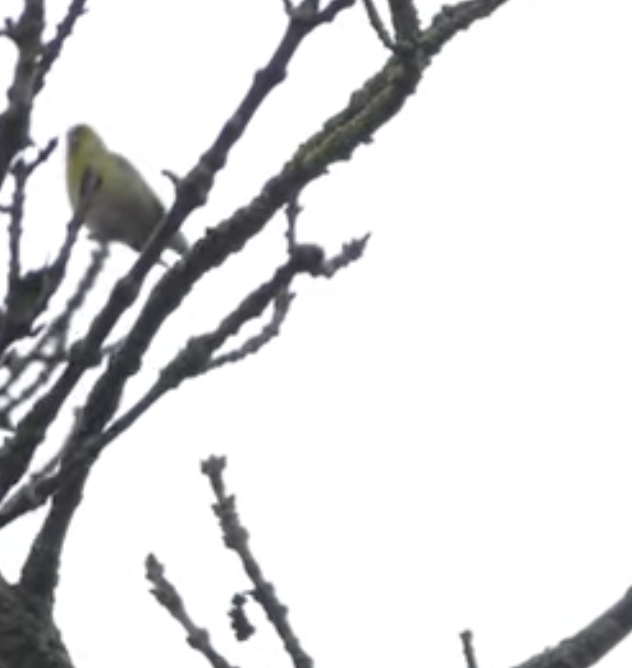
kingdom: Animalia
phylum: Chordata
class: Aves
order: Passeriformes
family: Fringillidae
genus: Spinus
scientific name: Spinus spinus
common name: Eurasian siskin
